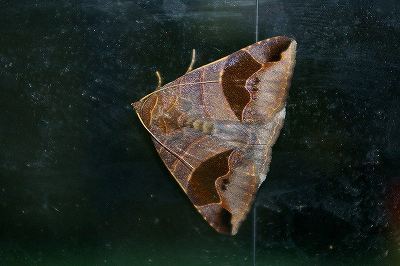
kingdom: Animalia
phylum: Arthropoda
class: Insecta
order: Lepidoptera
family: Erebidae
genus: Bastilla
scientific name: Bastilla joviana
